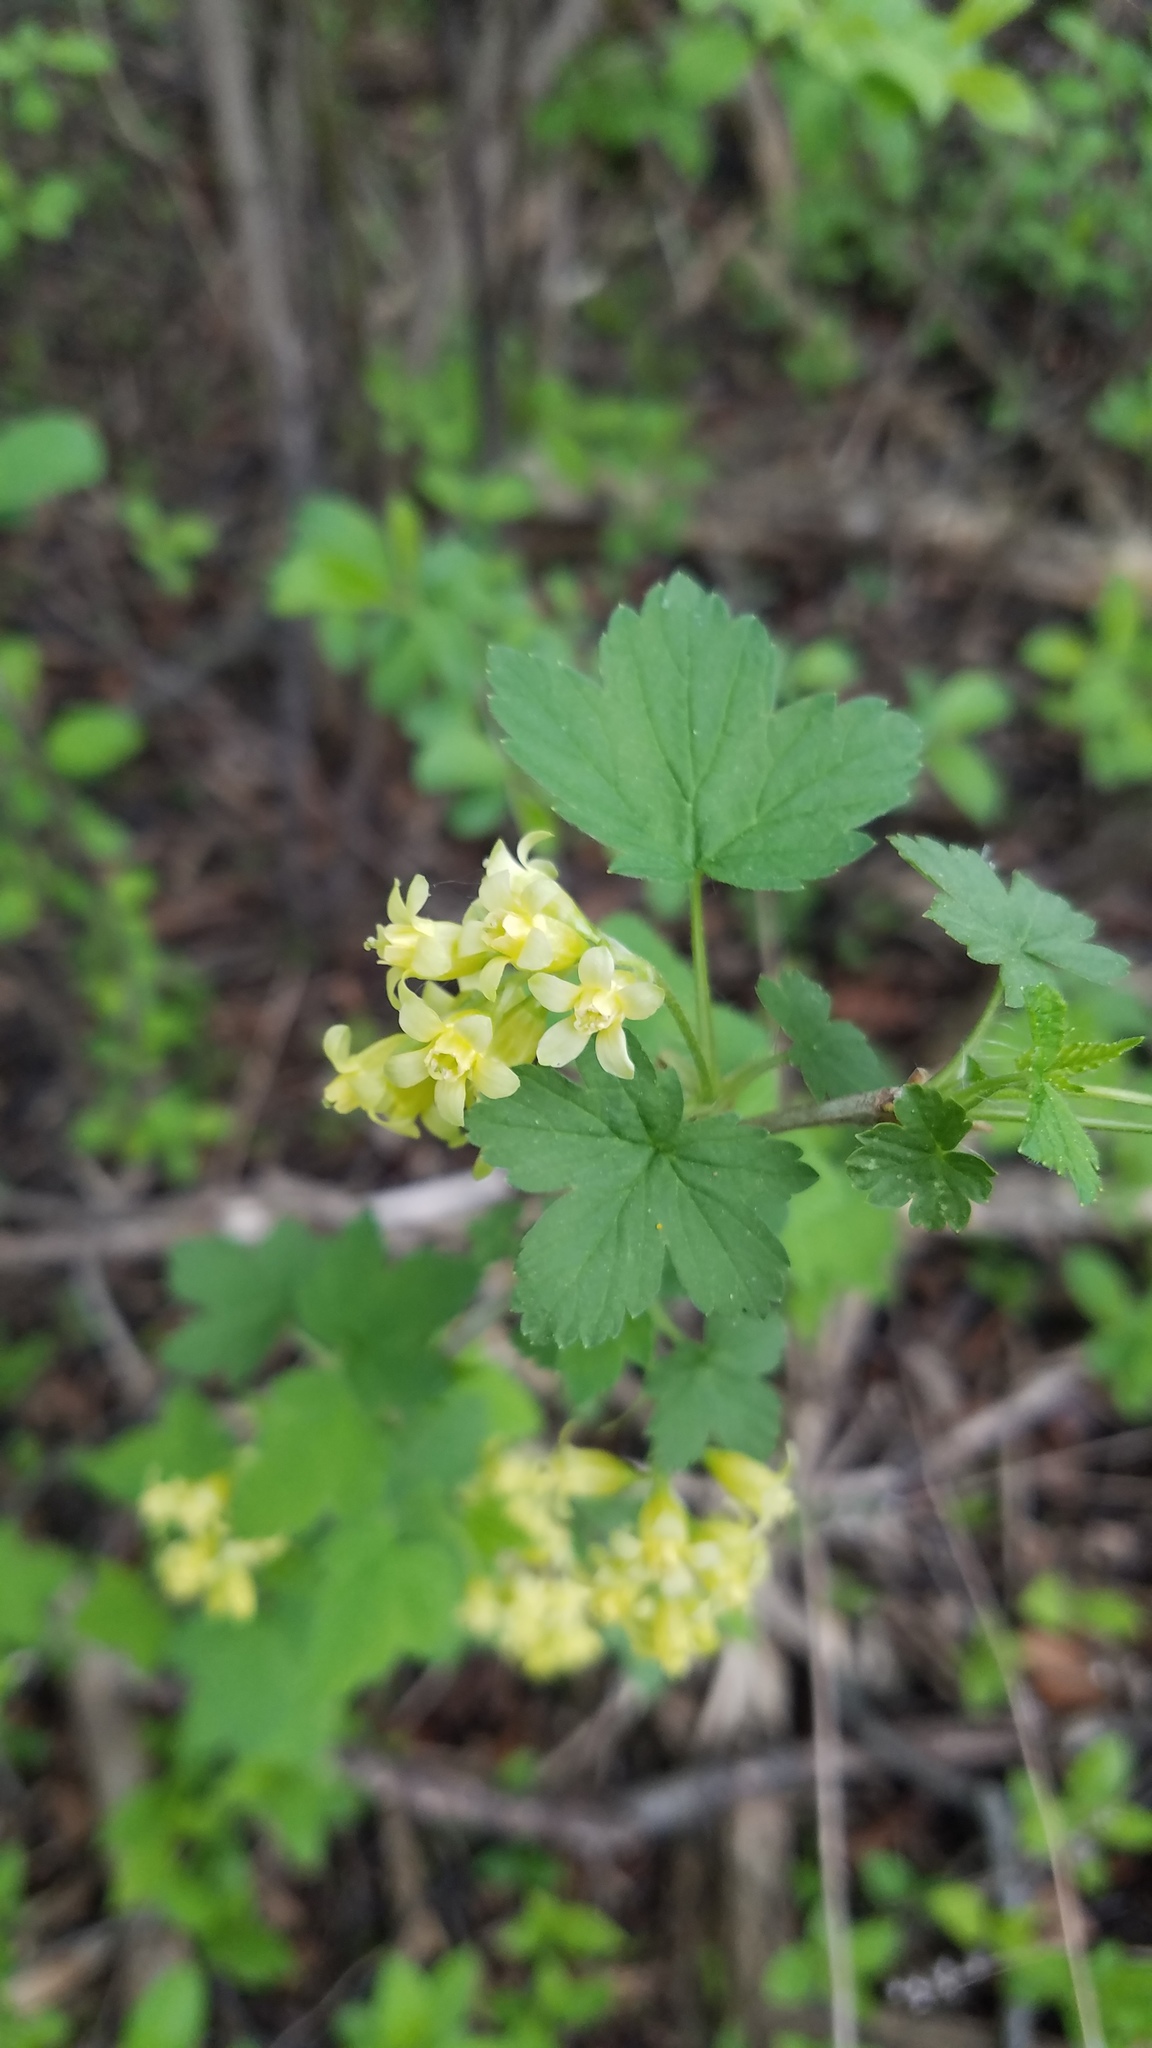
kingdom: Plantae
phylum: Tracheophyta
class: Magnoliopsida
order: Saxifragales
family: Grossulariaceae
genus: Ribes
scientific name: Ribes americanum
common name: American black currant
